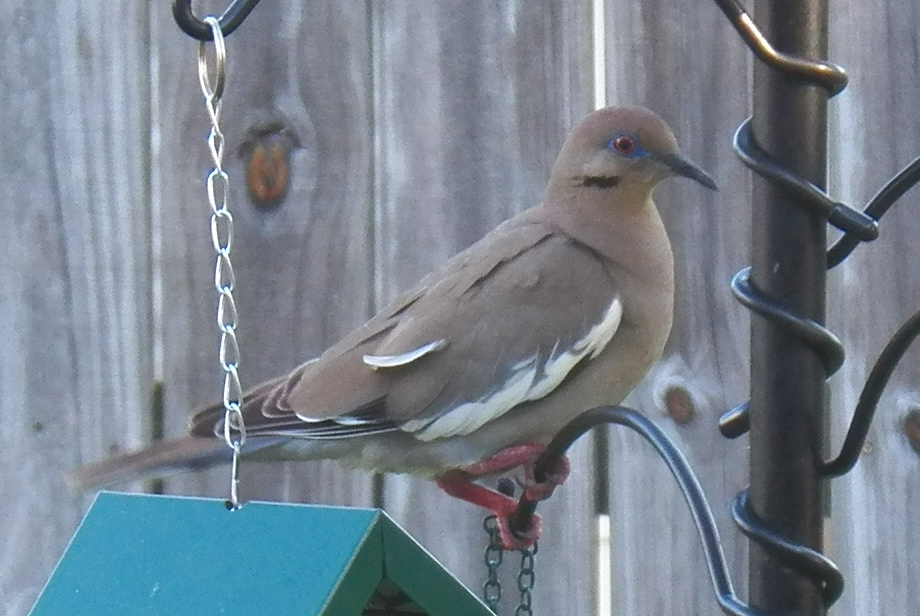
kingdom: Animalia
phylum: Chordata
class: Aves
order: Columbiformes
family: Columbidae
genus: Zenaida
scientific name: Zenaida asiatica
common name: White-winged dove
